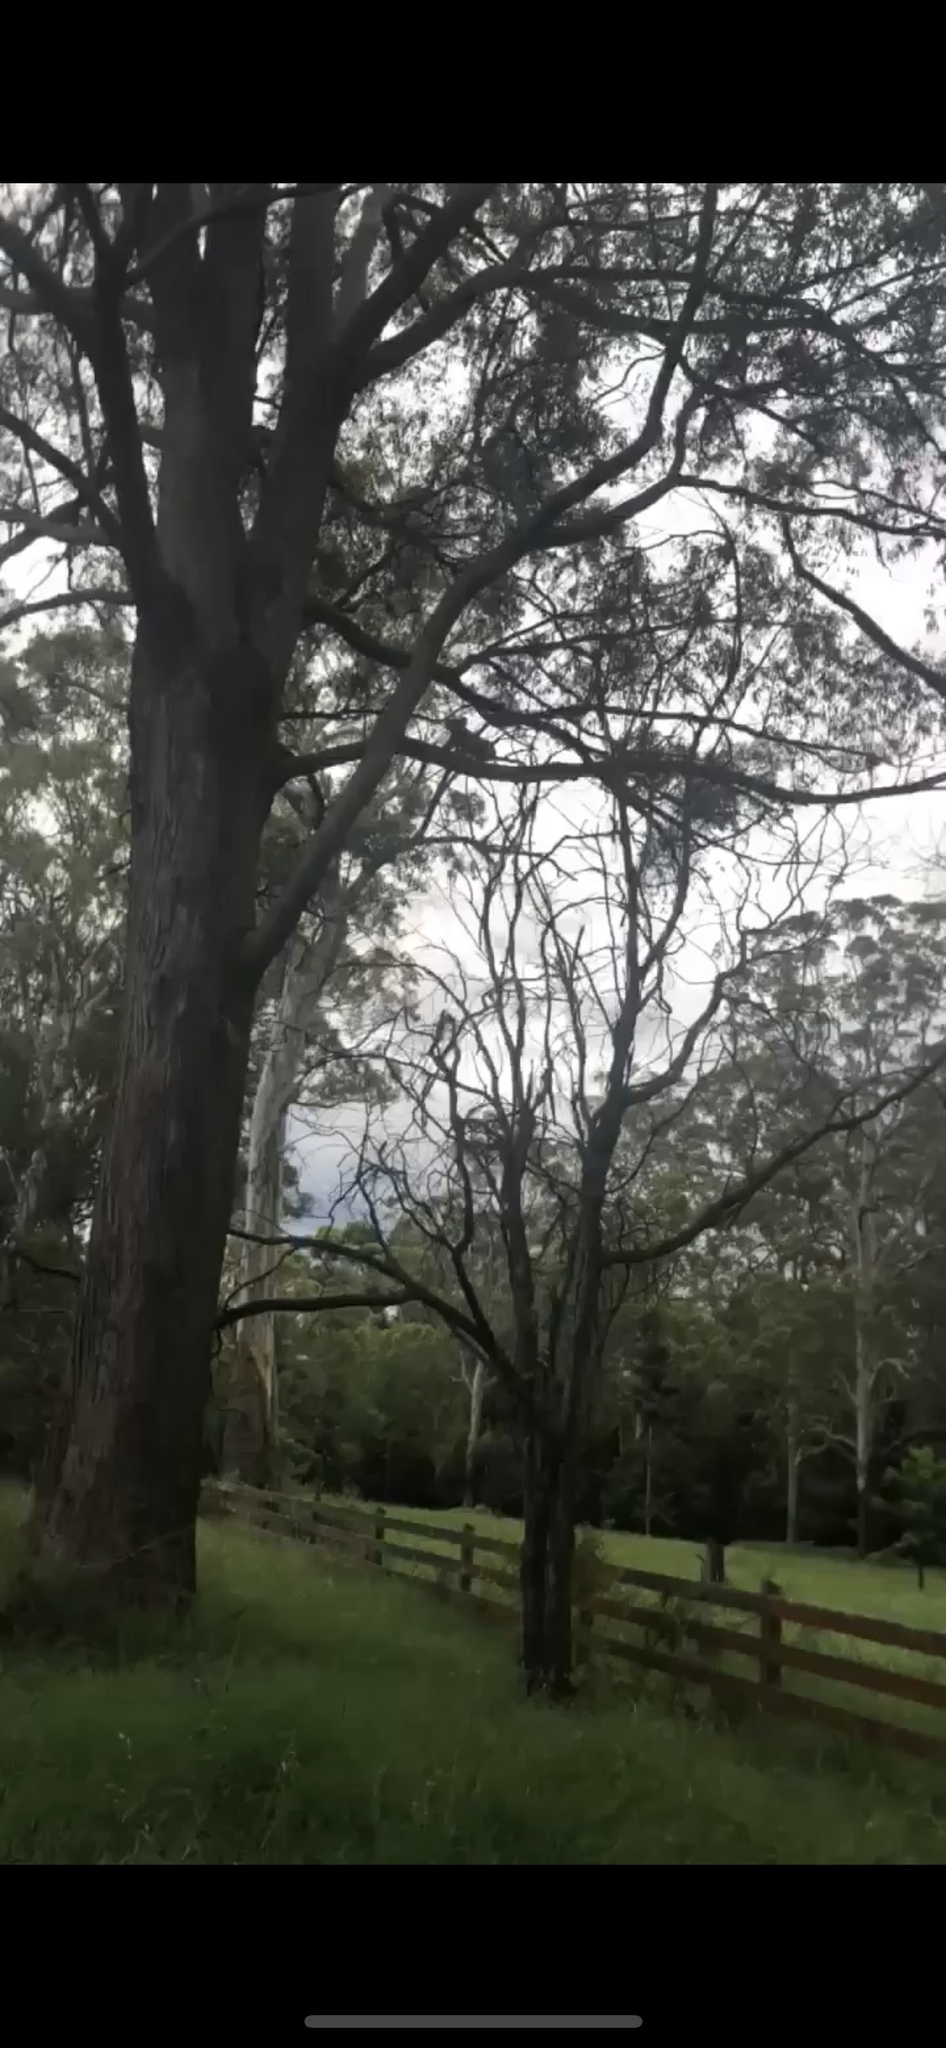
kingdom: Animalia
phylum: Chordata
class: Mammalia
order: Diprotodontia
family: Phascolarctidae
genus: Phascolarctos
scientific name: Phascolarctos cinereus
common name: Koala
